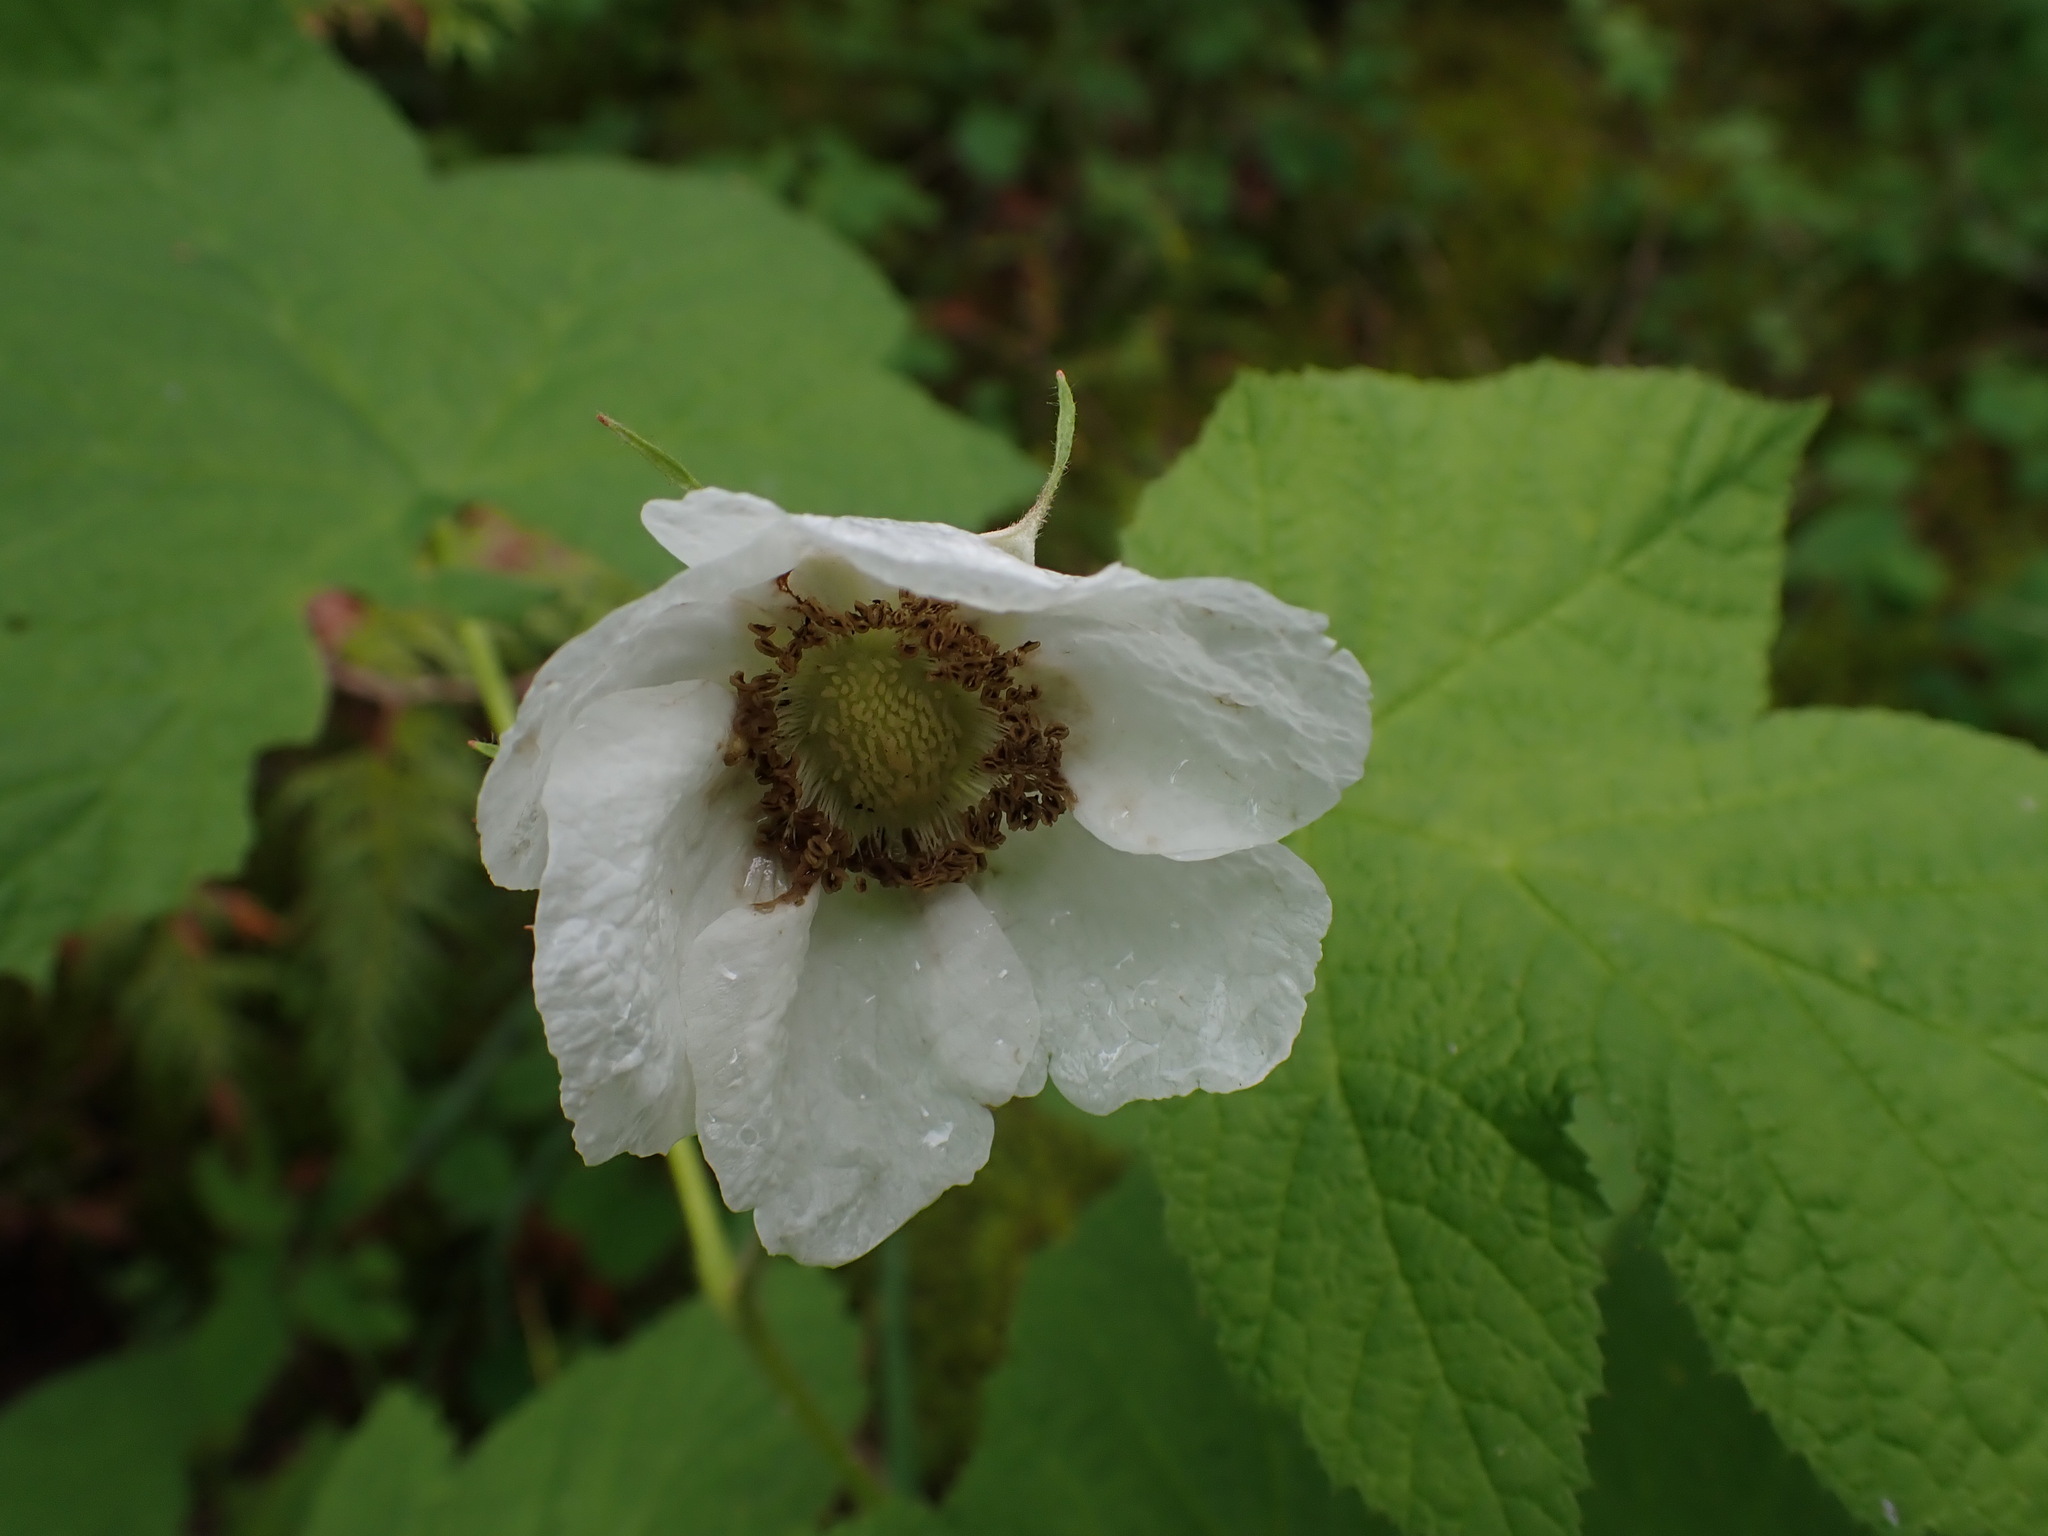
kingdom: Plantae
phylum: Tracheophyta
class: Magnoliopsida
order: Rosales
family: Rosaceae
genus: Rubus
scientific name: Rubus parviflorus
